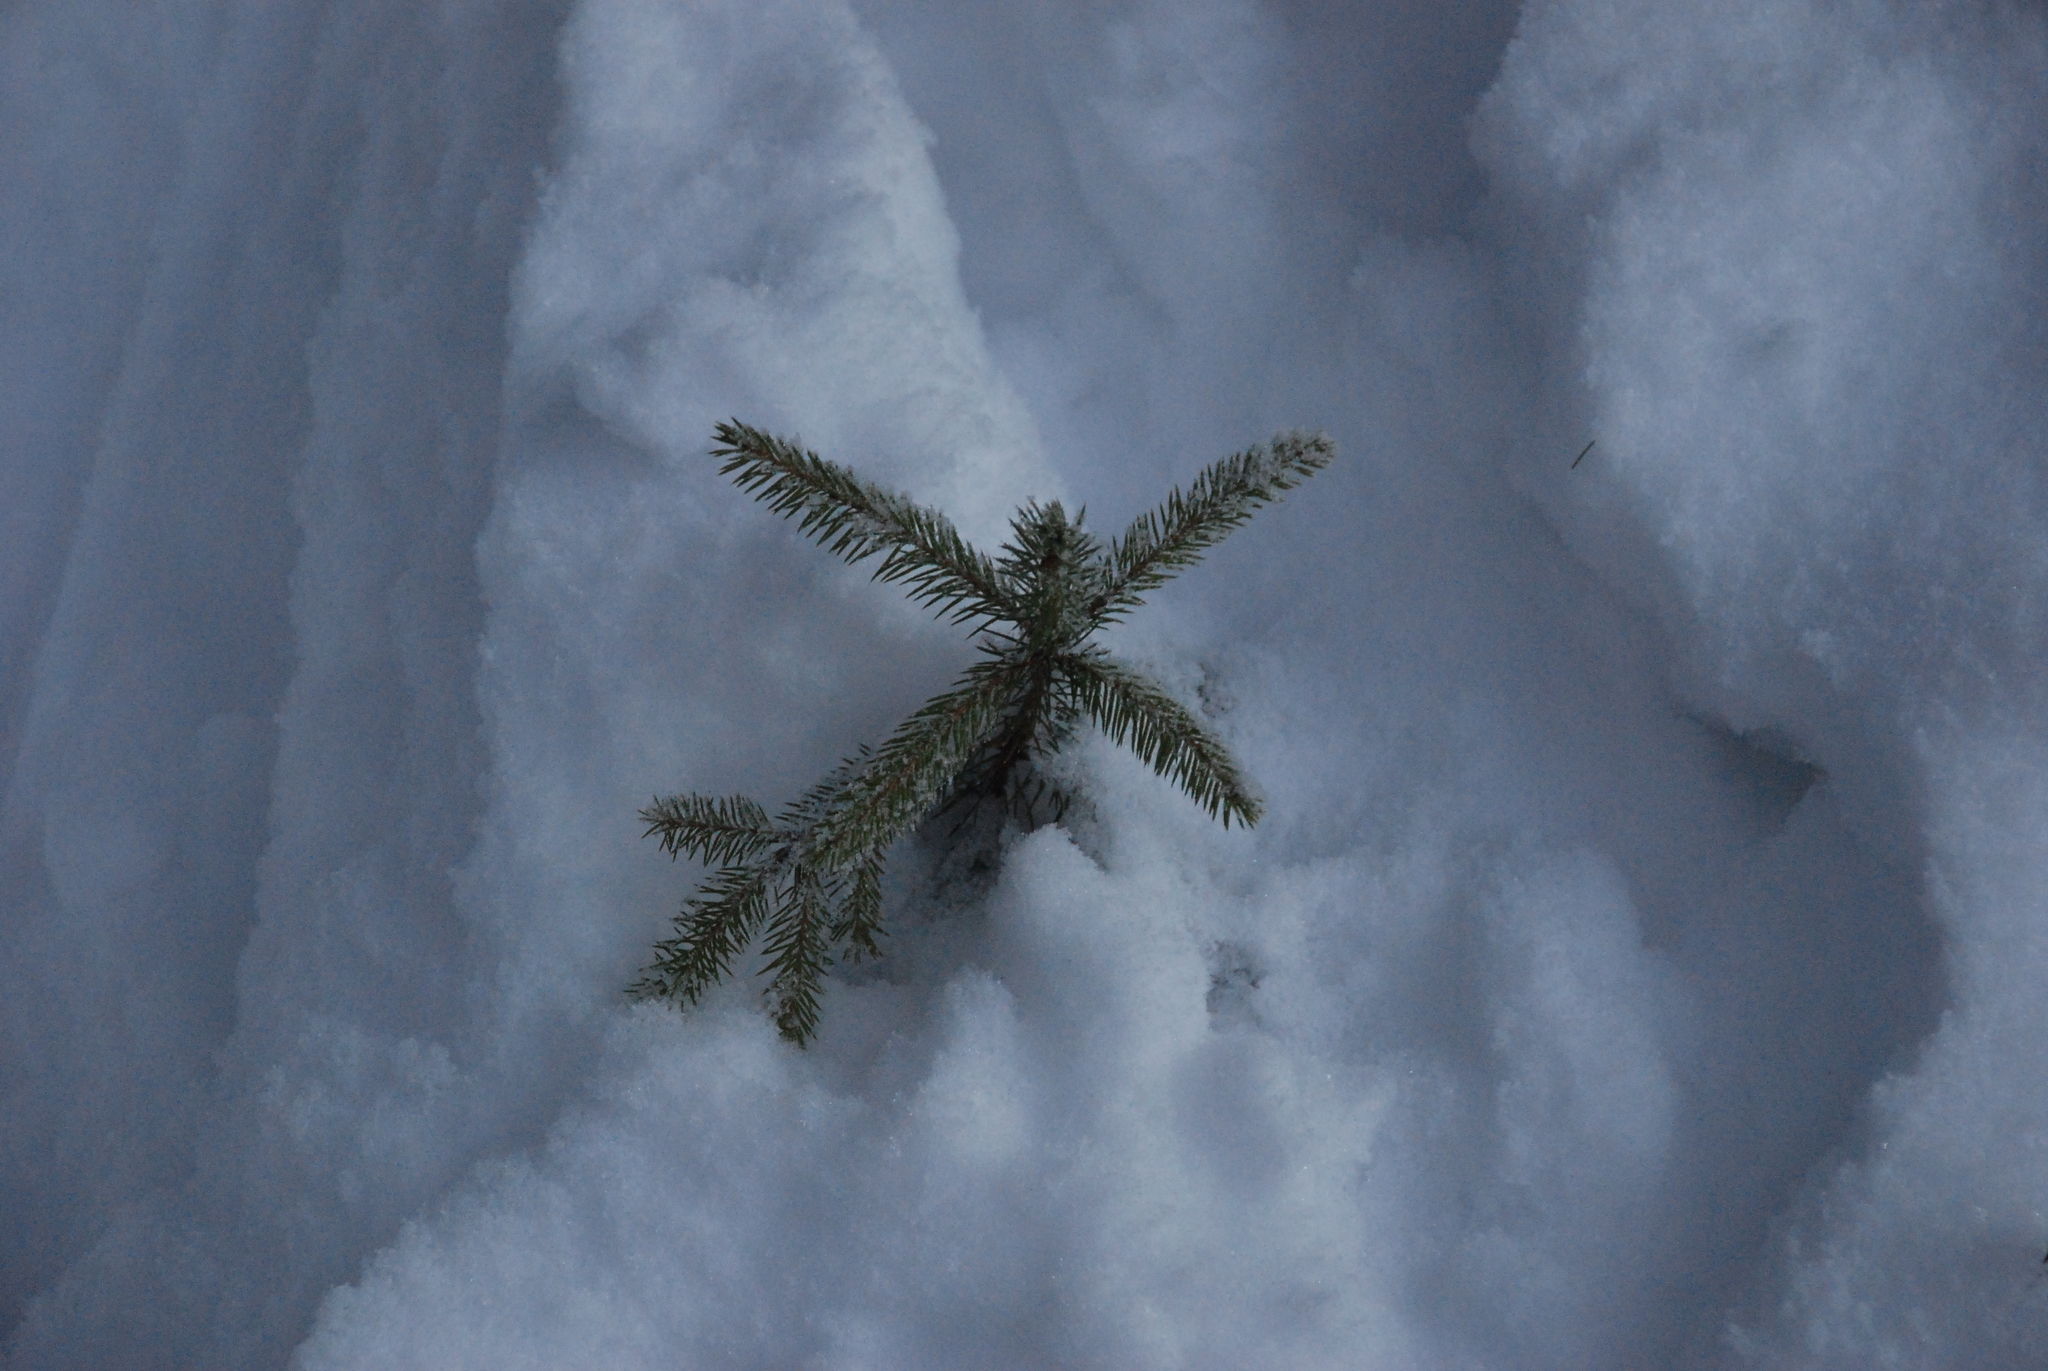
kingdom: Plantae
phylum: Tracheophyta
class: Pinopsida
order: Pinales
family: Pinaceae
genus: Picea
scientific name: Picea abies
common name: Norway spruce
